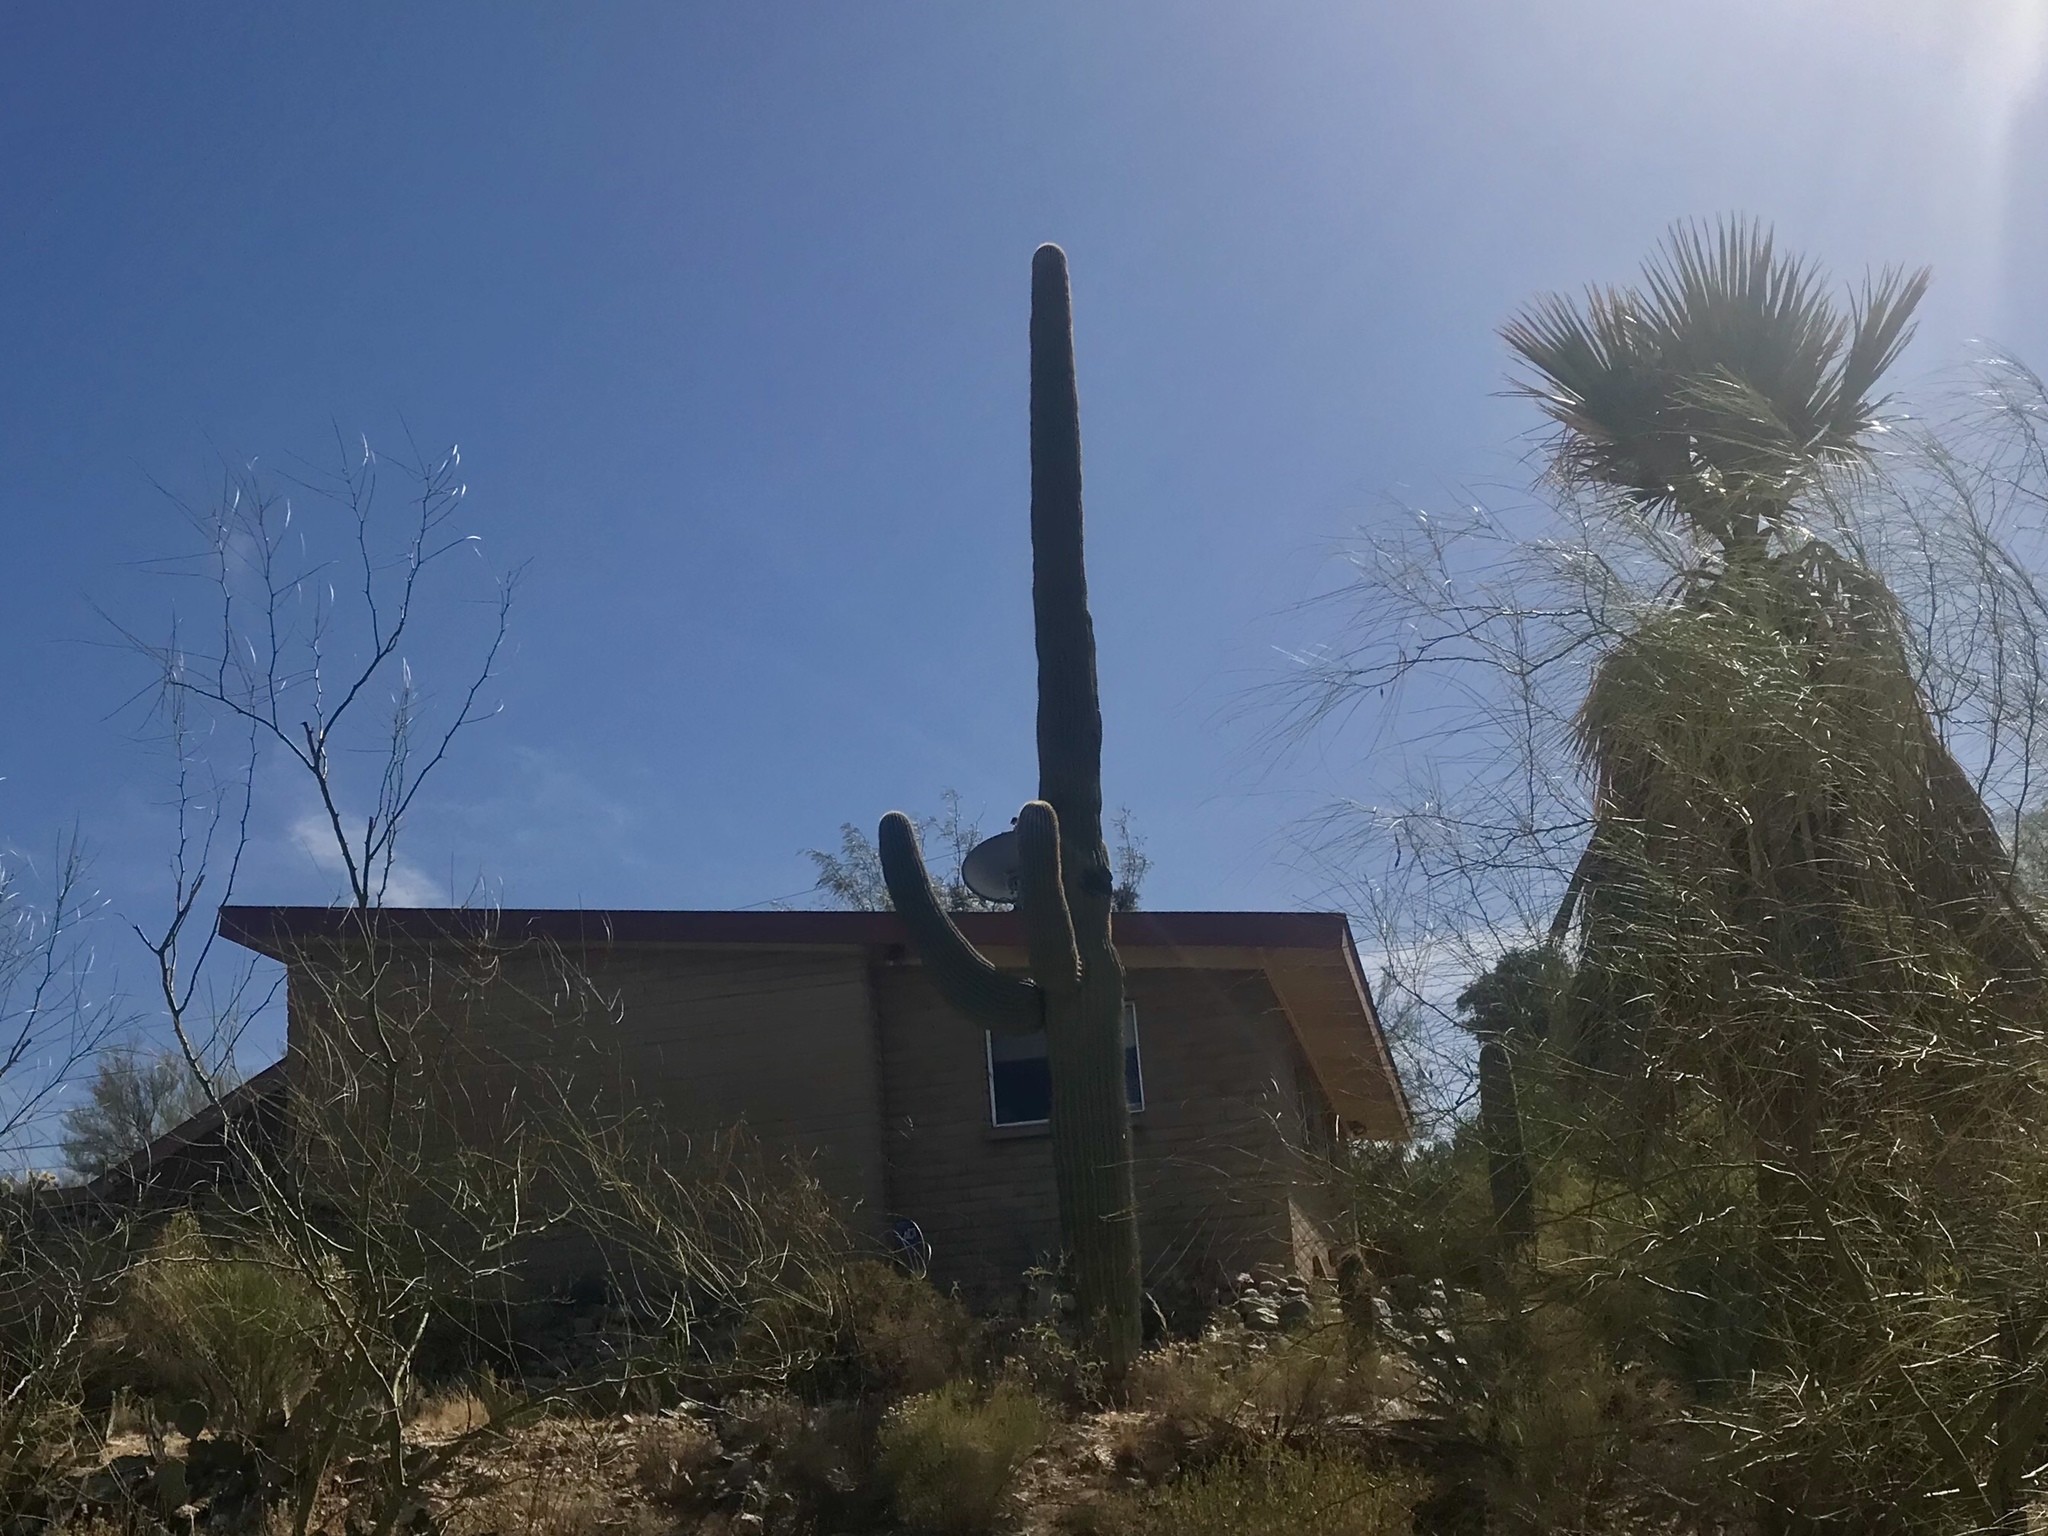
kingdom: Plantae
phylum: Tracheophyta
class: Magnoliopsida
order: Caryophyllales
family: Cactaceae
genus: Carnegiea
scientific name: Carnegiea gigantea
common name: Saguaro
